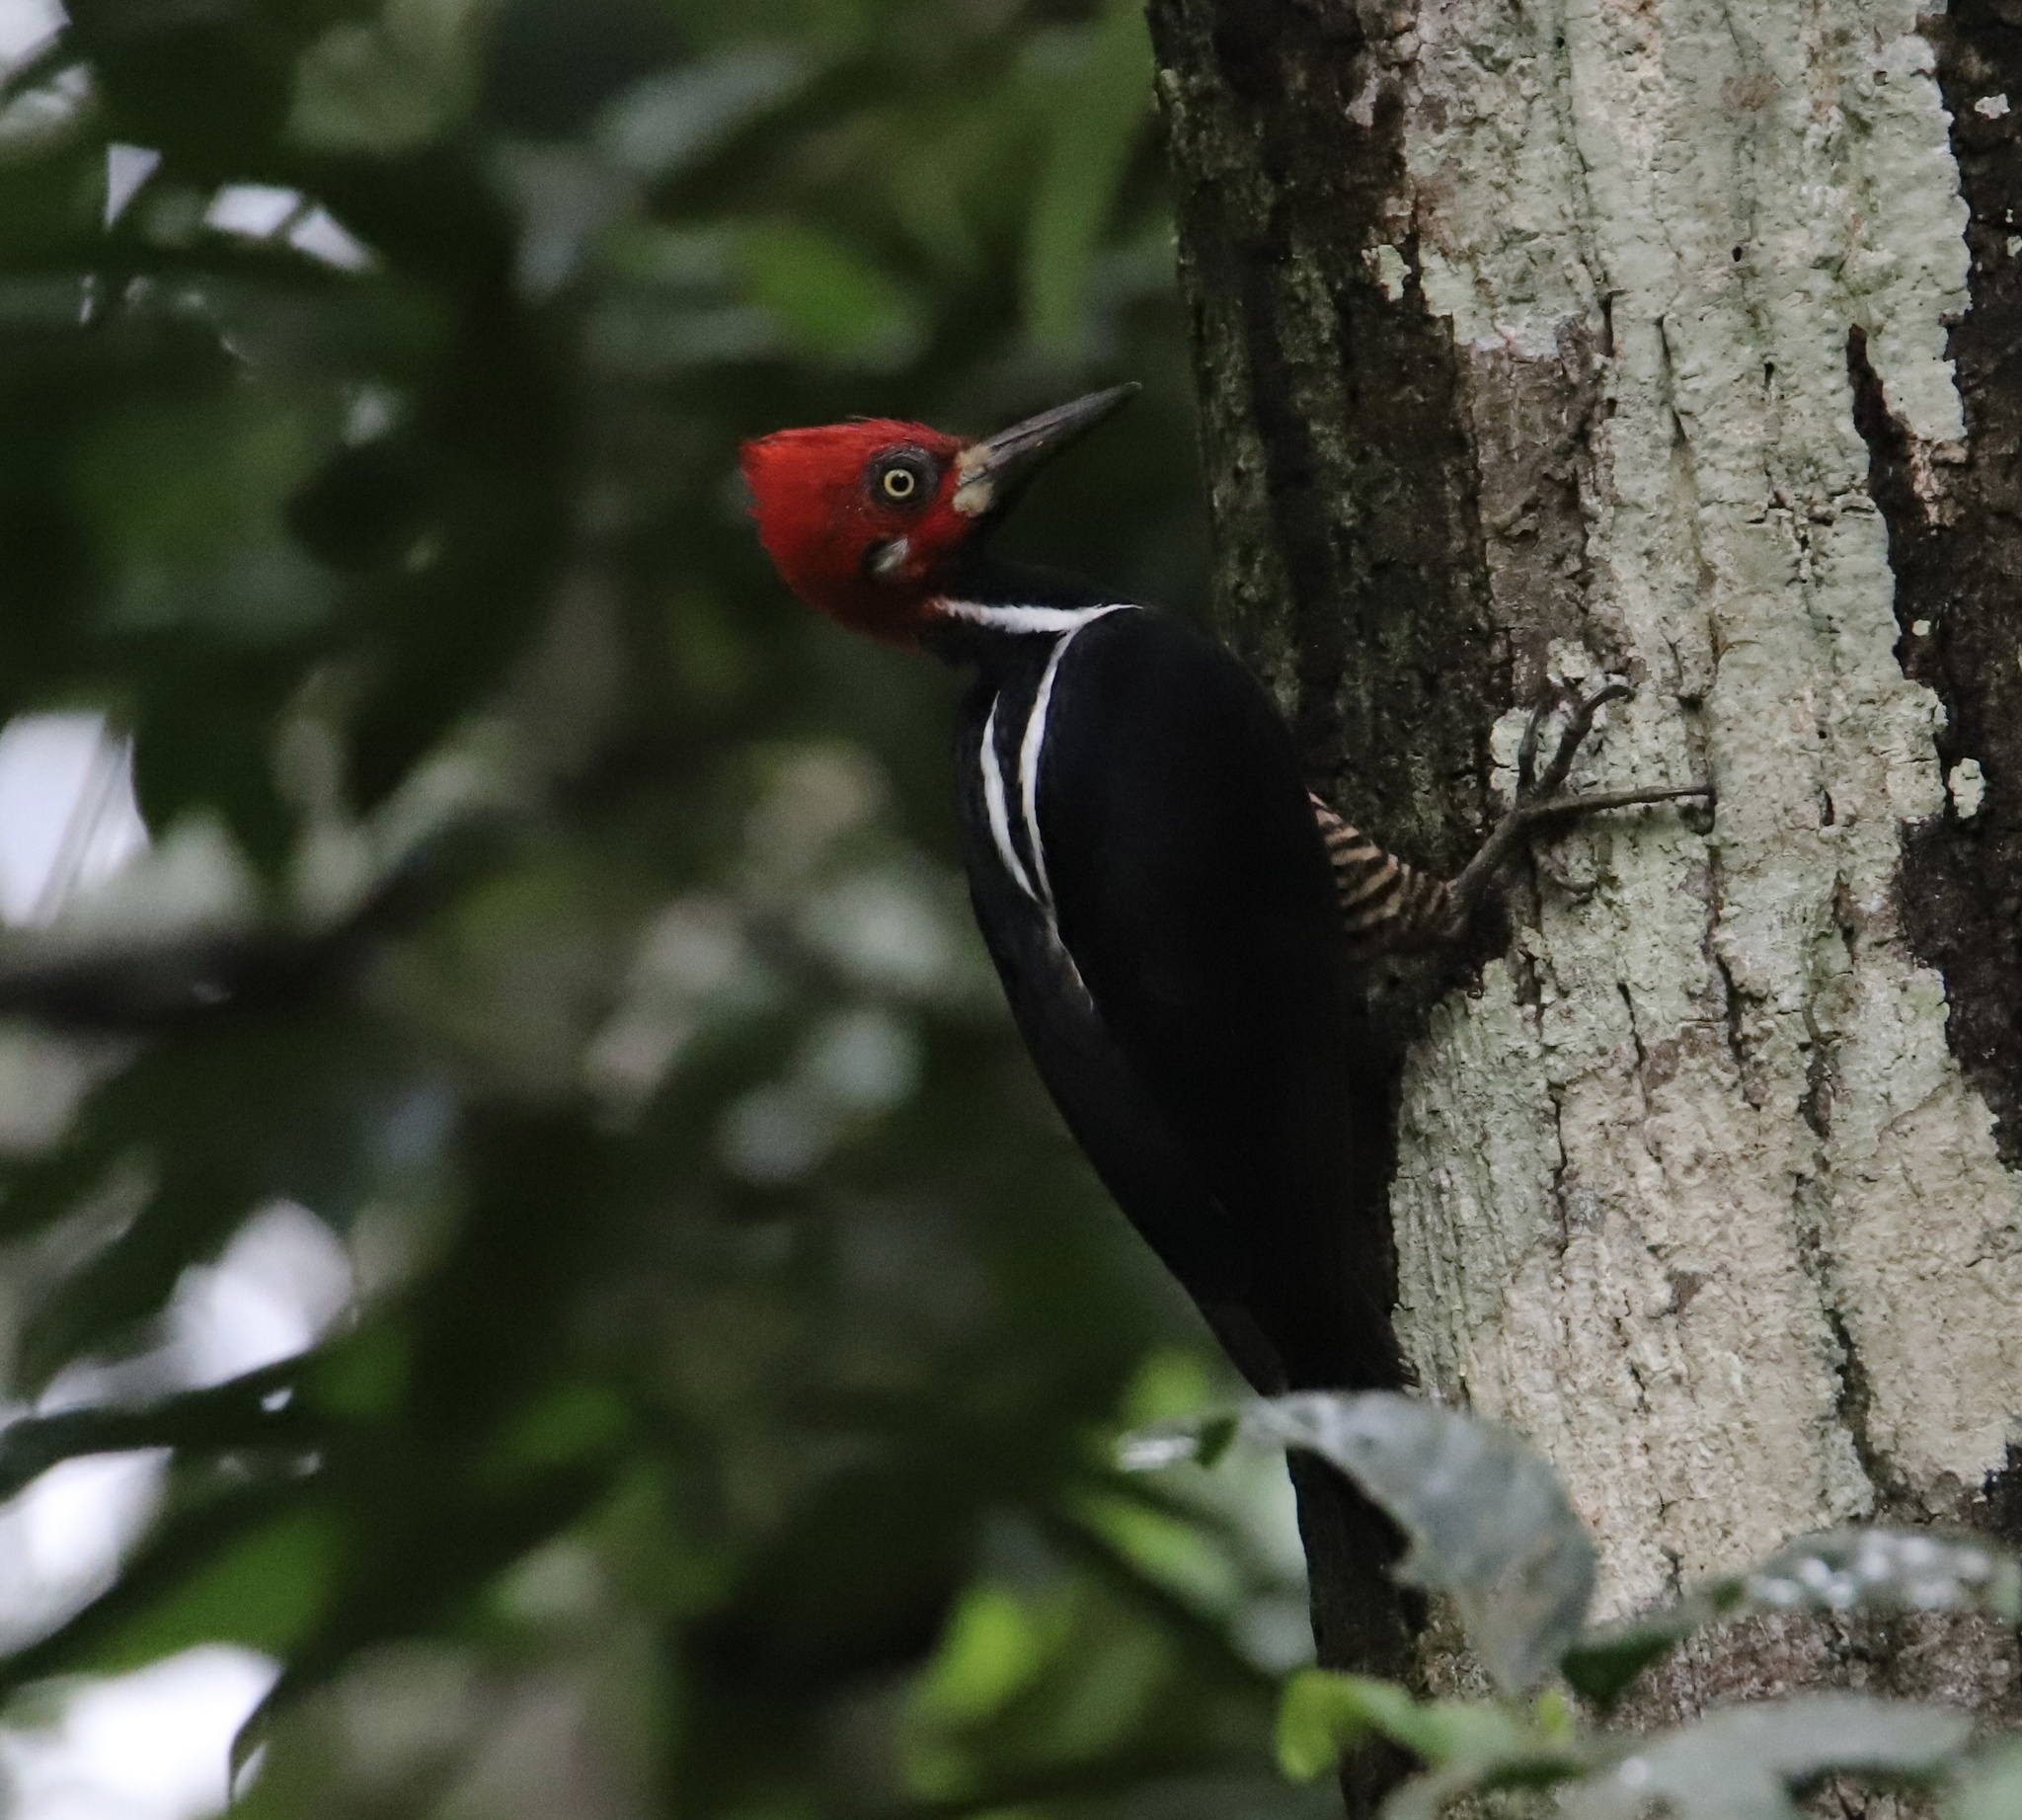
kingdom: Animalia
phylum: Chordata
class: Aves
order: Piciformes
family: Picidae
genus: Campephilus
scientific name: Campephilus melanoleucos
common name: Crimson-crested woodpecker
